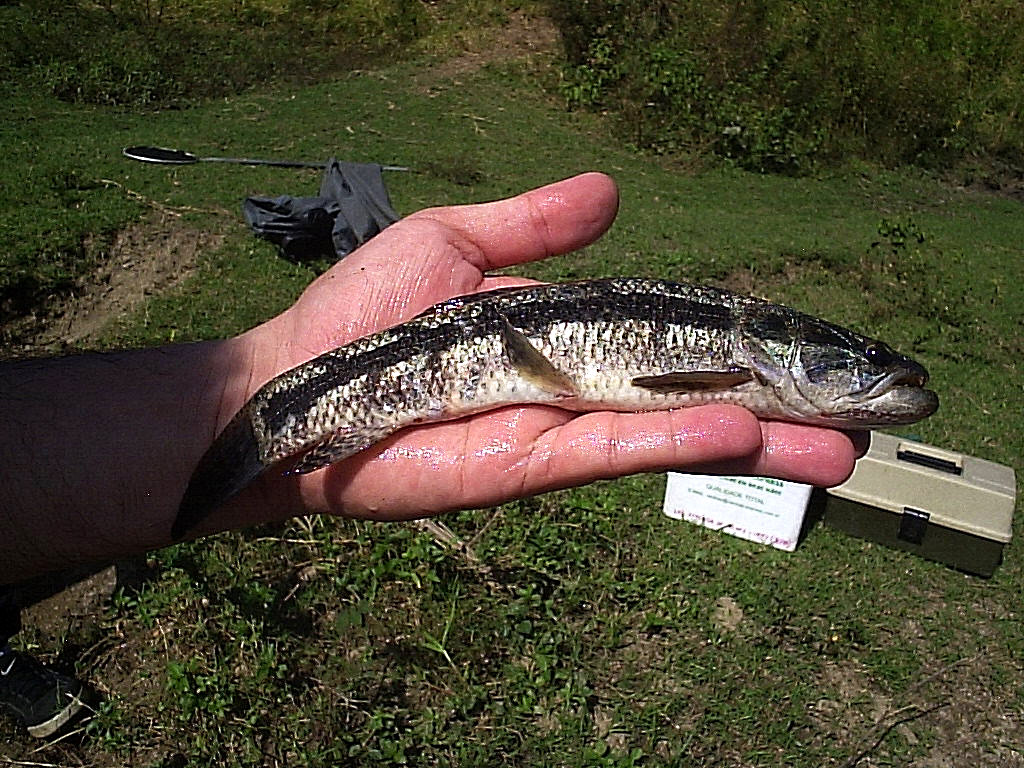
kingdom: Animalia
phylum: Chordata
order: Characiformes
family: Erythrinidae
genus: Hoplias
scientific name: Hoplias malabaricus
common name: Trahira
